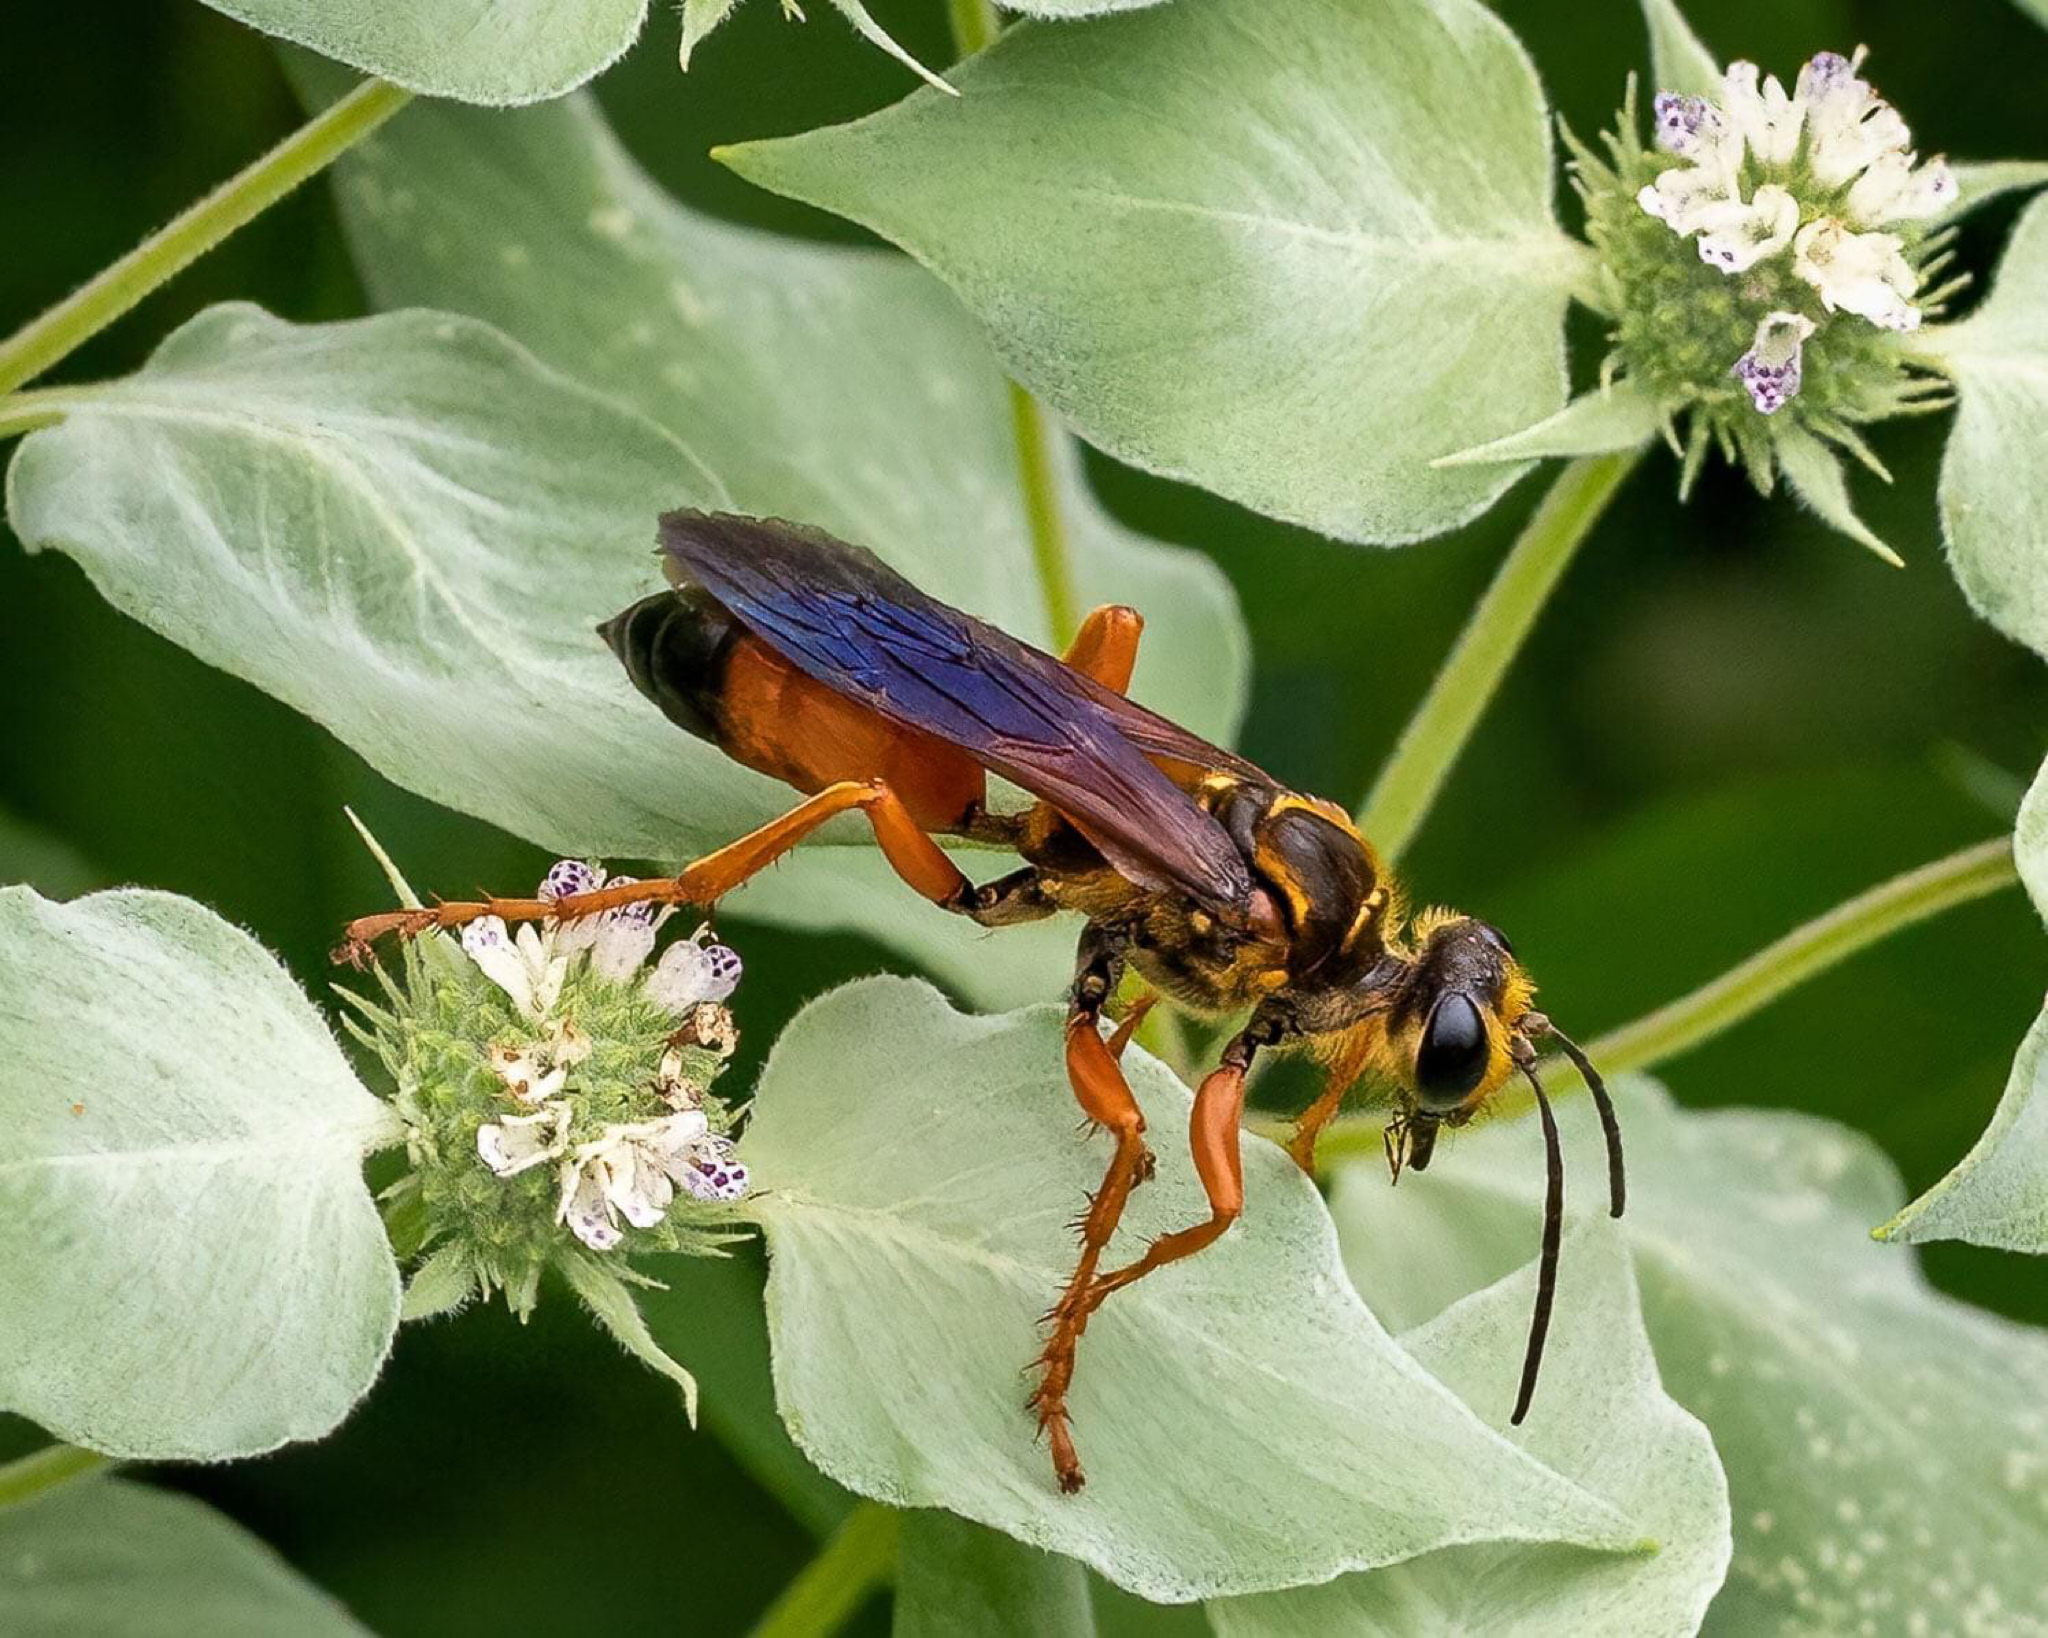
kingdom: Animalia
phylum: Arthropoda
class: Insecta
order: Hymenoptera
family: Sphecidae
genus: Sphex
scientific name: Sphex ichneumoneus
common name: Great golden digger wasp
